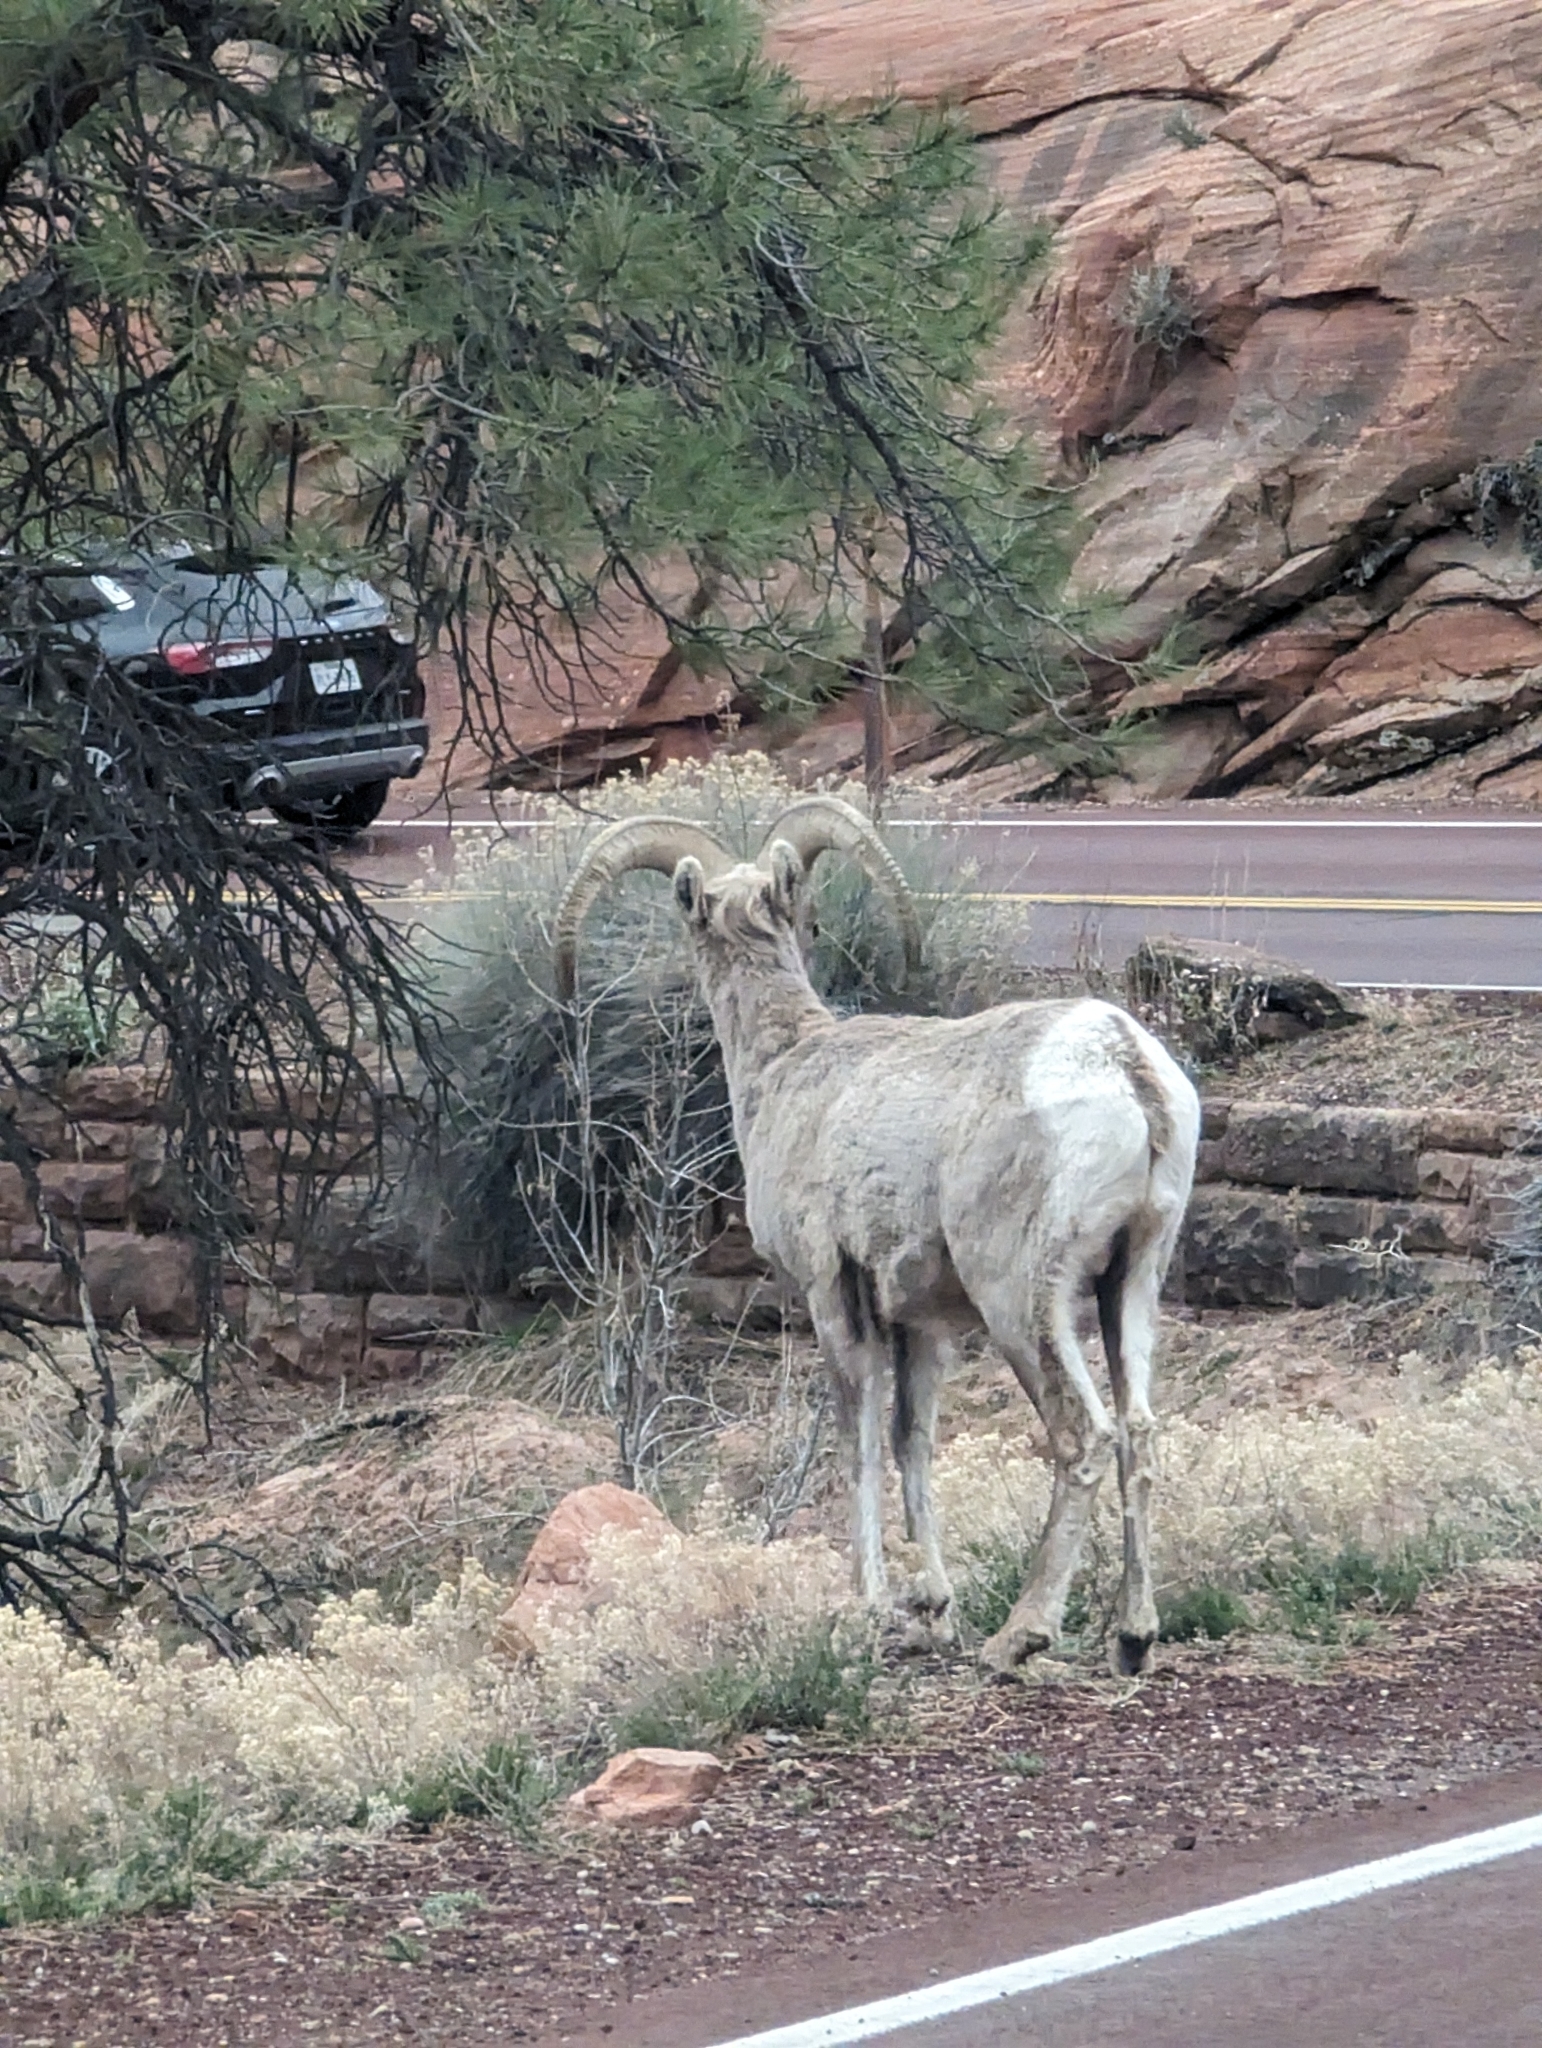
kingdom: Animalia
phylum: Chordata
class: Mammalia
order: Artiodactyla
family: Bovidae
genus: Ovis
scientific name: Ovis canadensis
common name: Bighorn sheep
